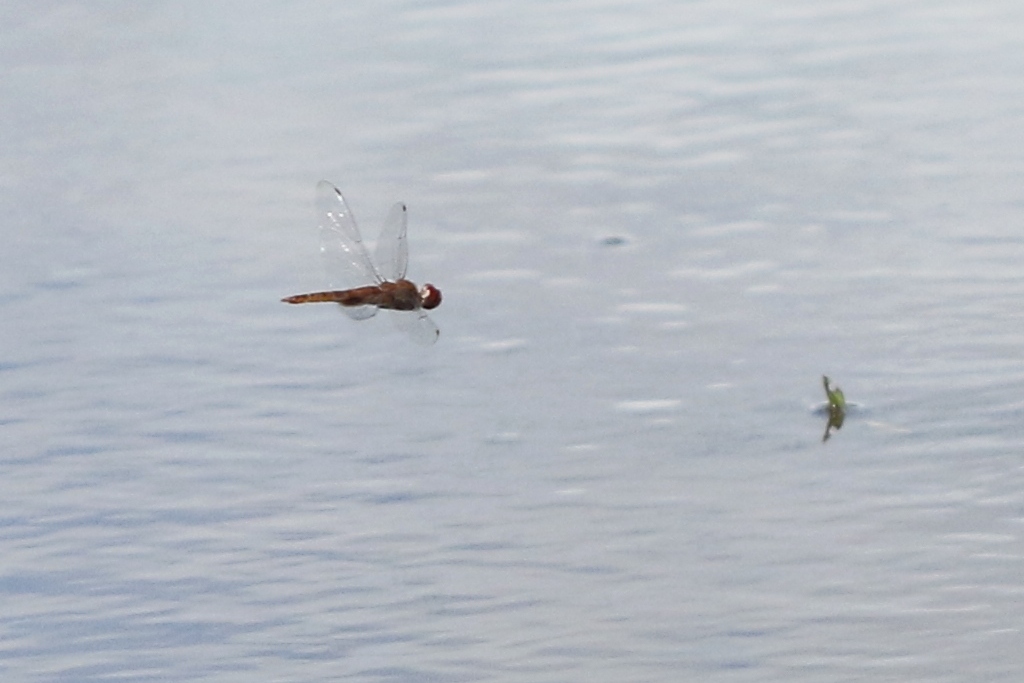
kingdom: Animalia
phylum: Arthropoda
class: Insecta
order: Odonata
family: Libellulidae
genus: Pantala
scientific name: Pantala hymenaea
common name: Spot-winged glider
